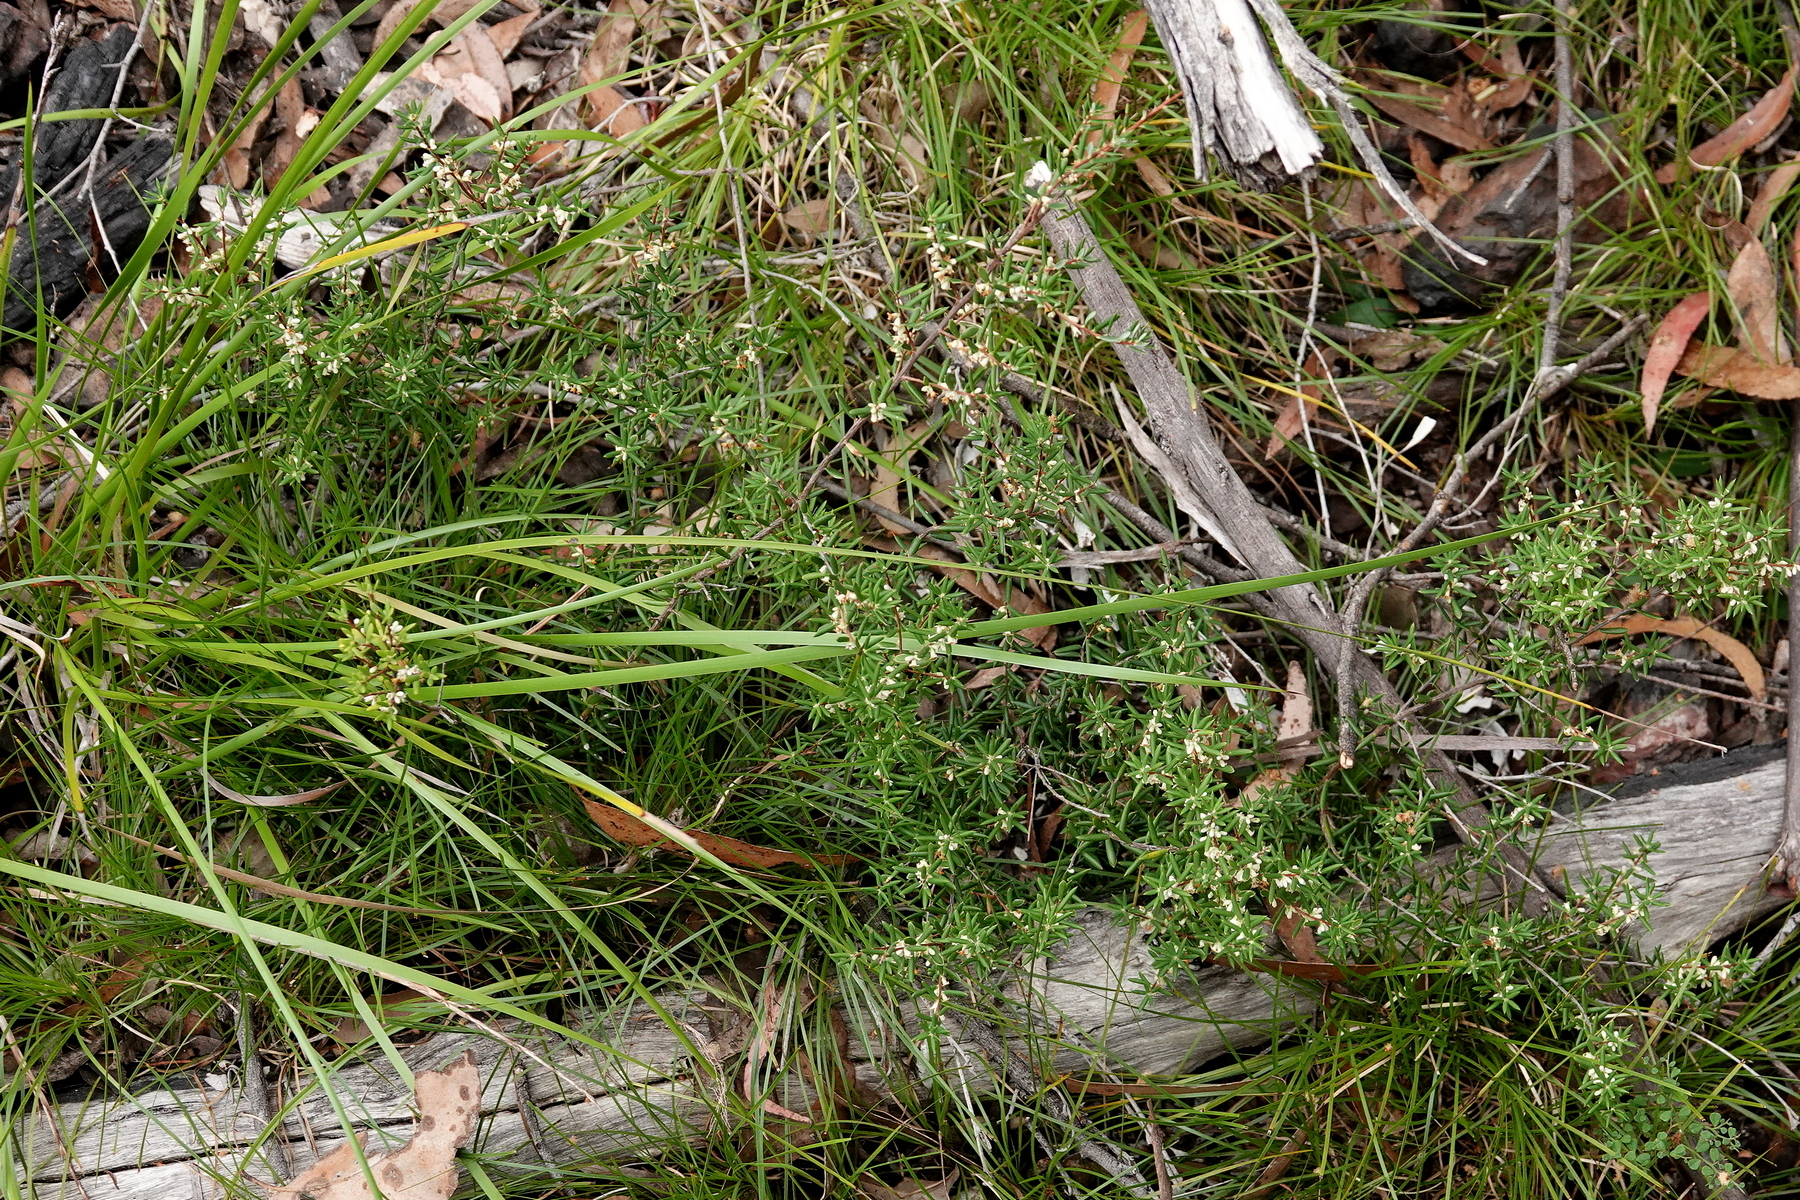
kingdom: Plantae
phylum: Tracheophyta
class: Magnoliopsida
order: Ericales
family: Ericaceae
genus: Monotoca
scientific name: Monotoca scoparia
